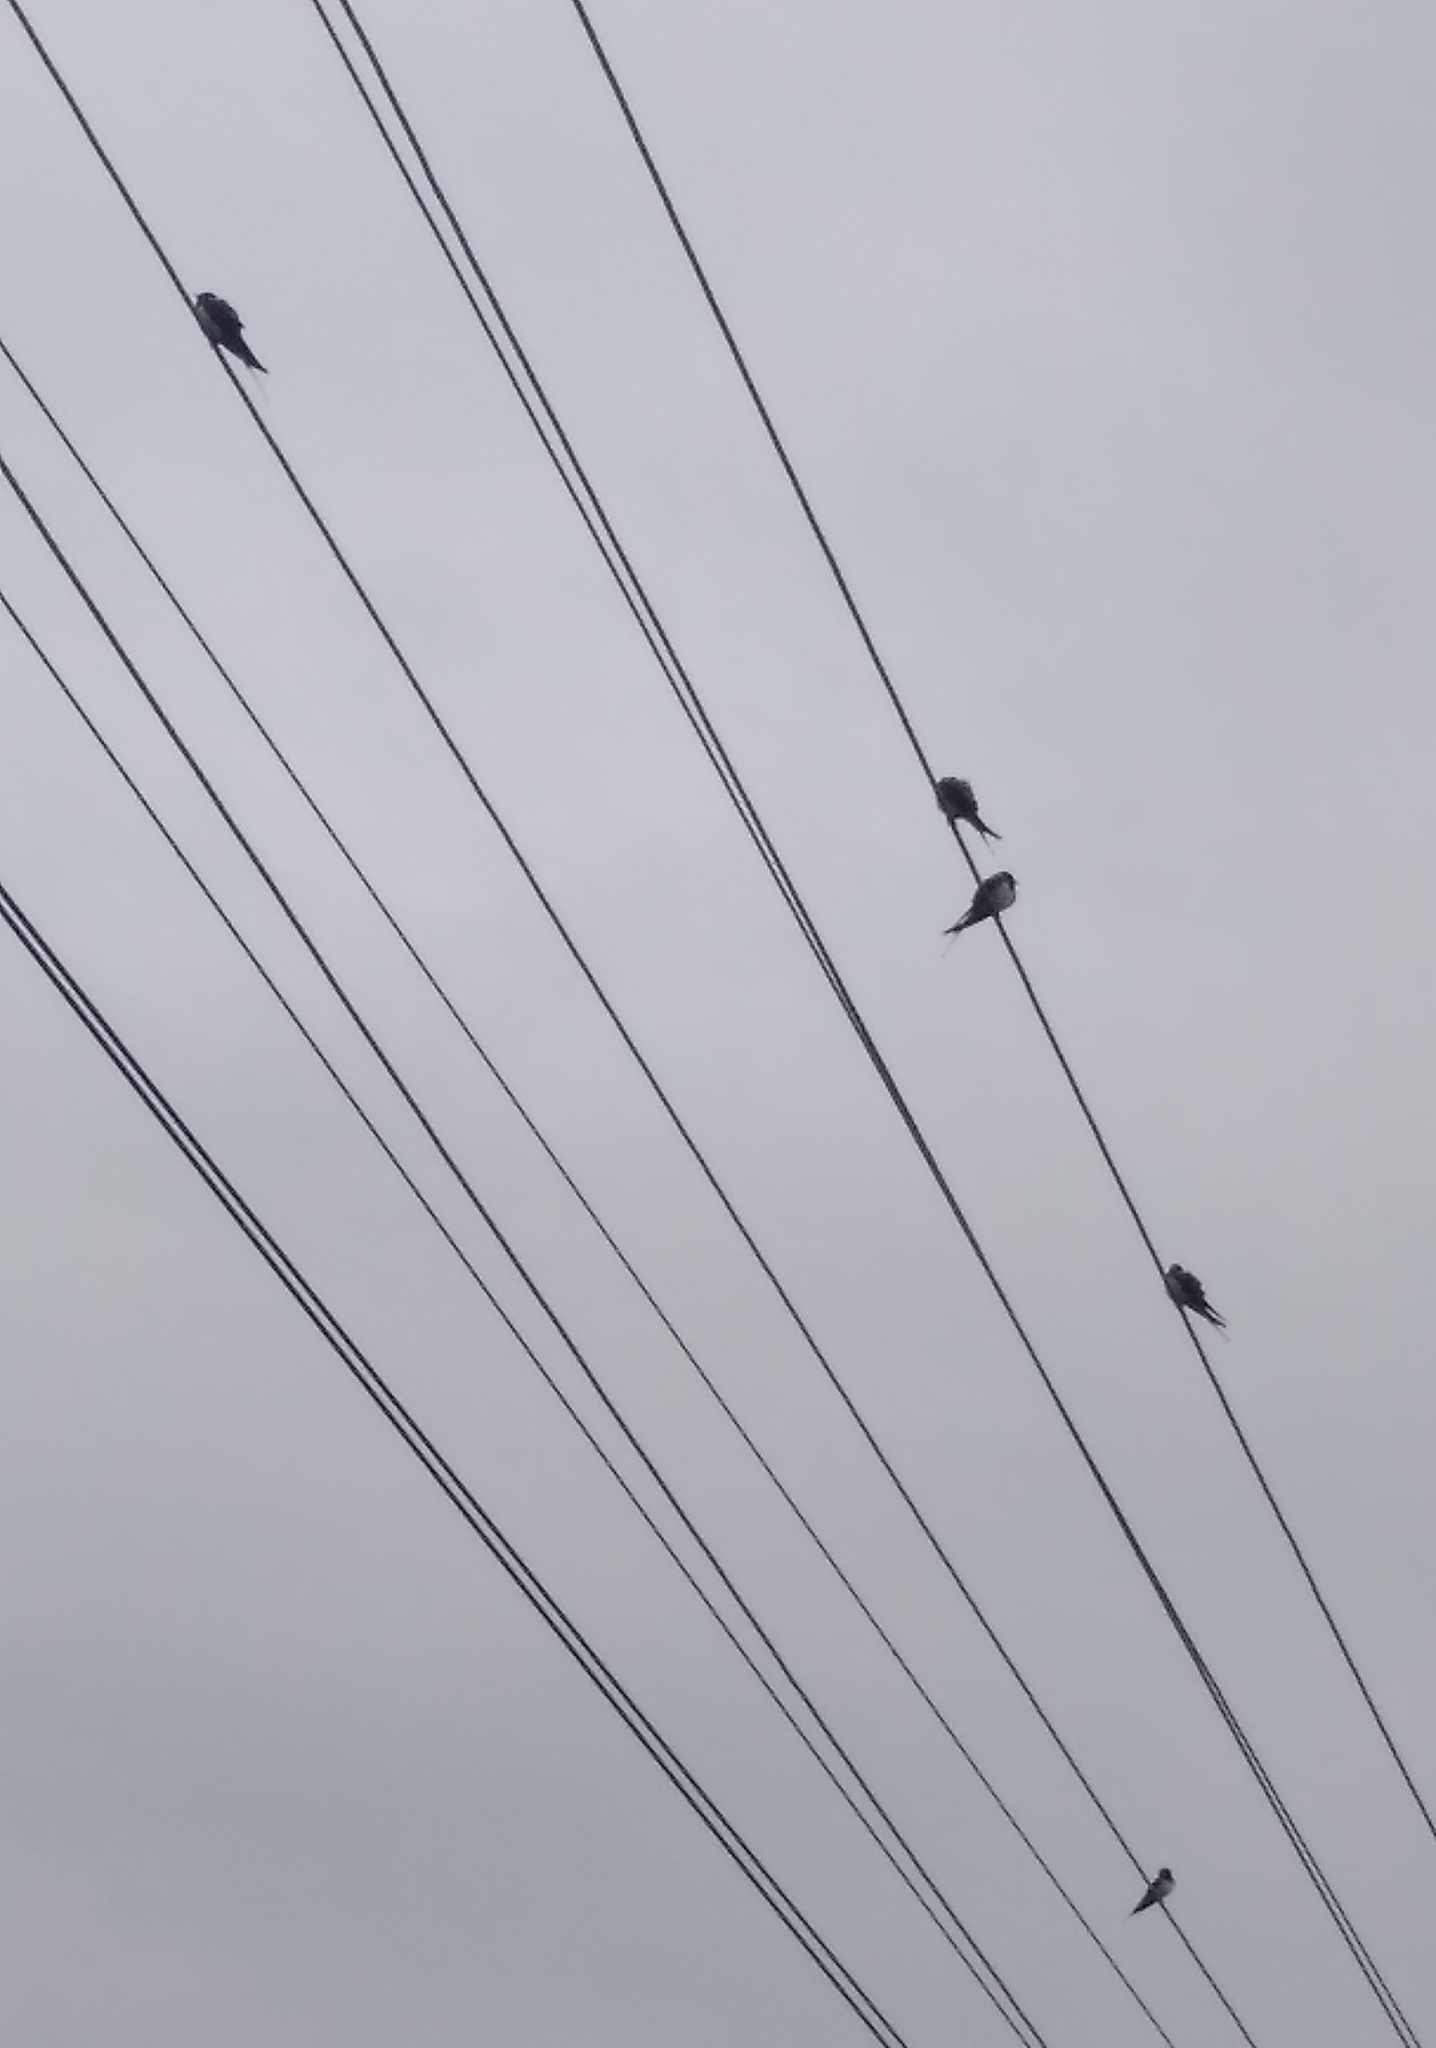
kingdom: Animalia
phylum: Chordata
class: Aves
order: Passeriformes
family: Hirundinidae
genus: Hirundo
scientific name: Hirundo rustica
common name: Barn swallow
